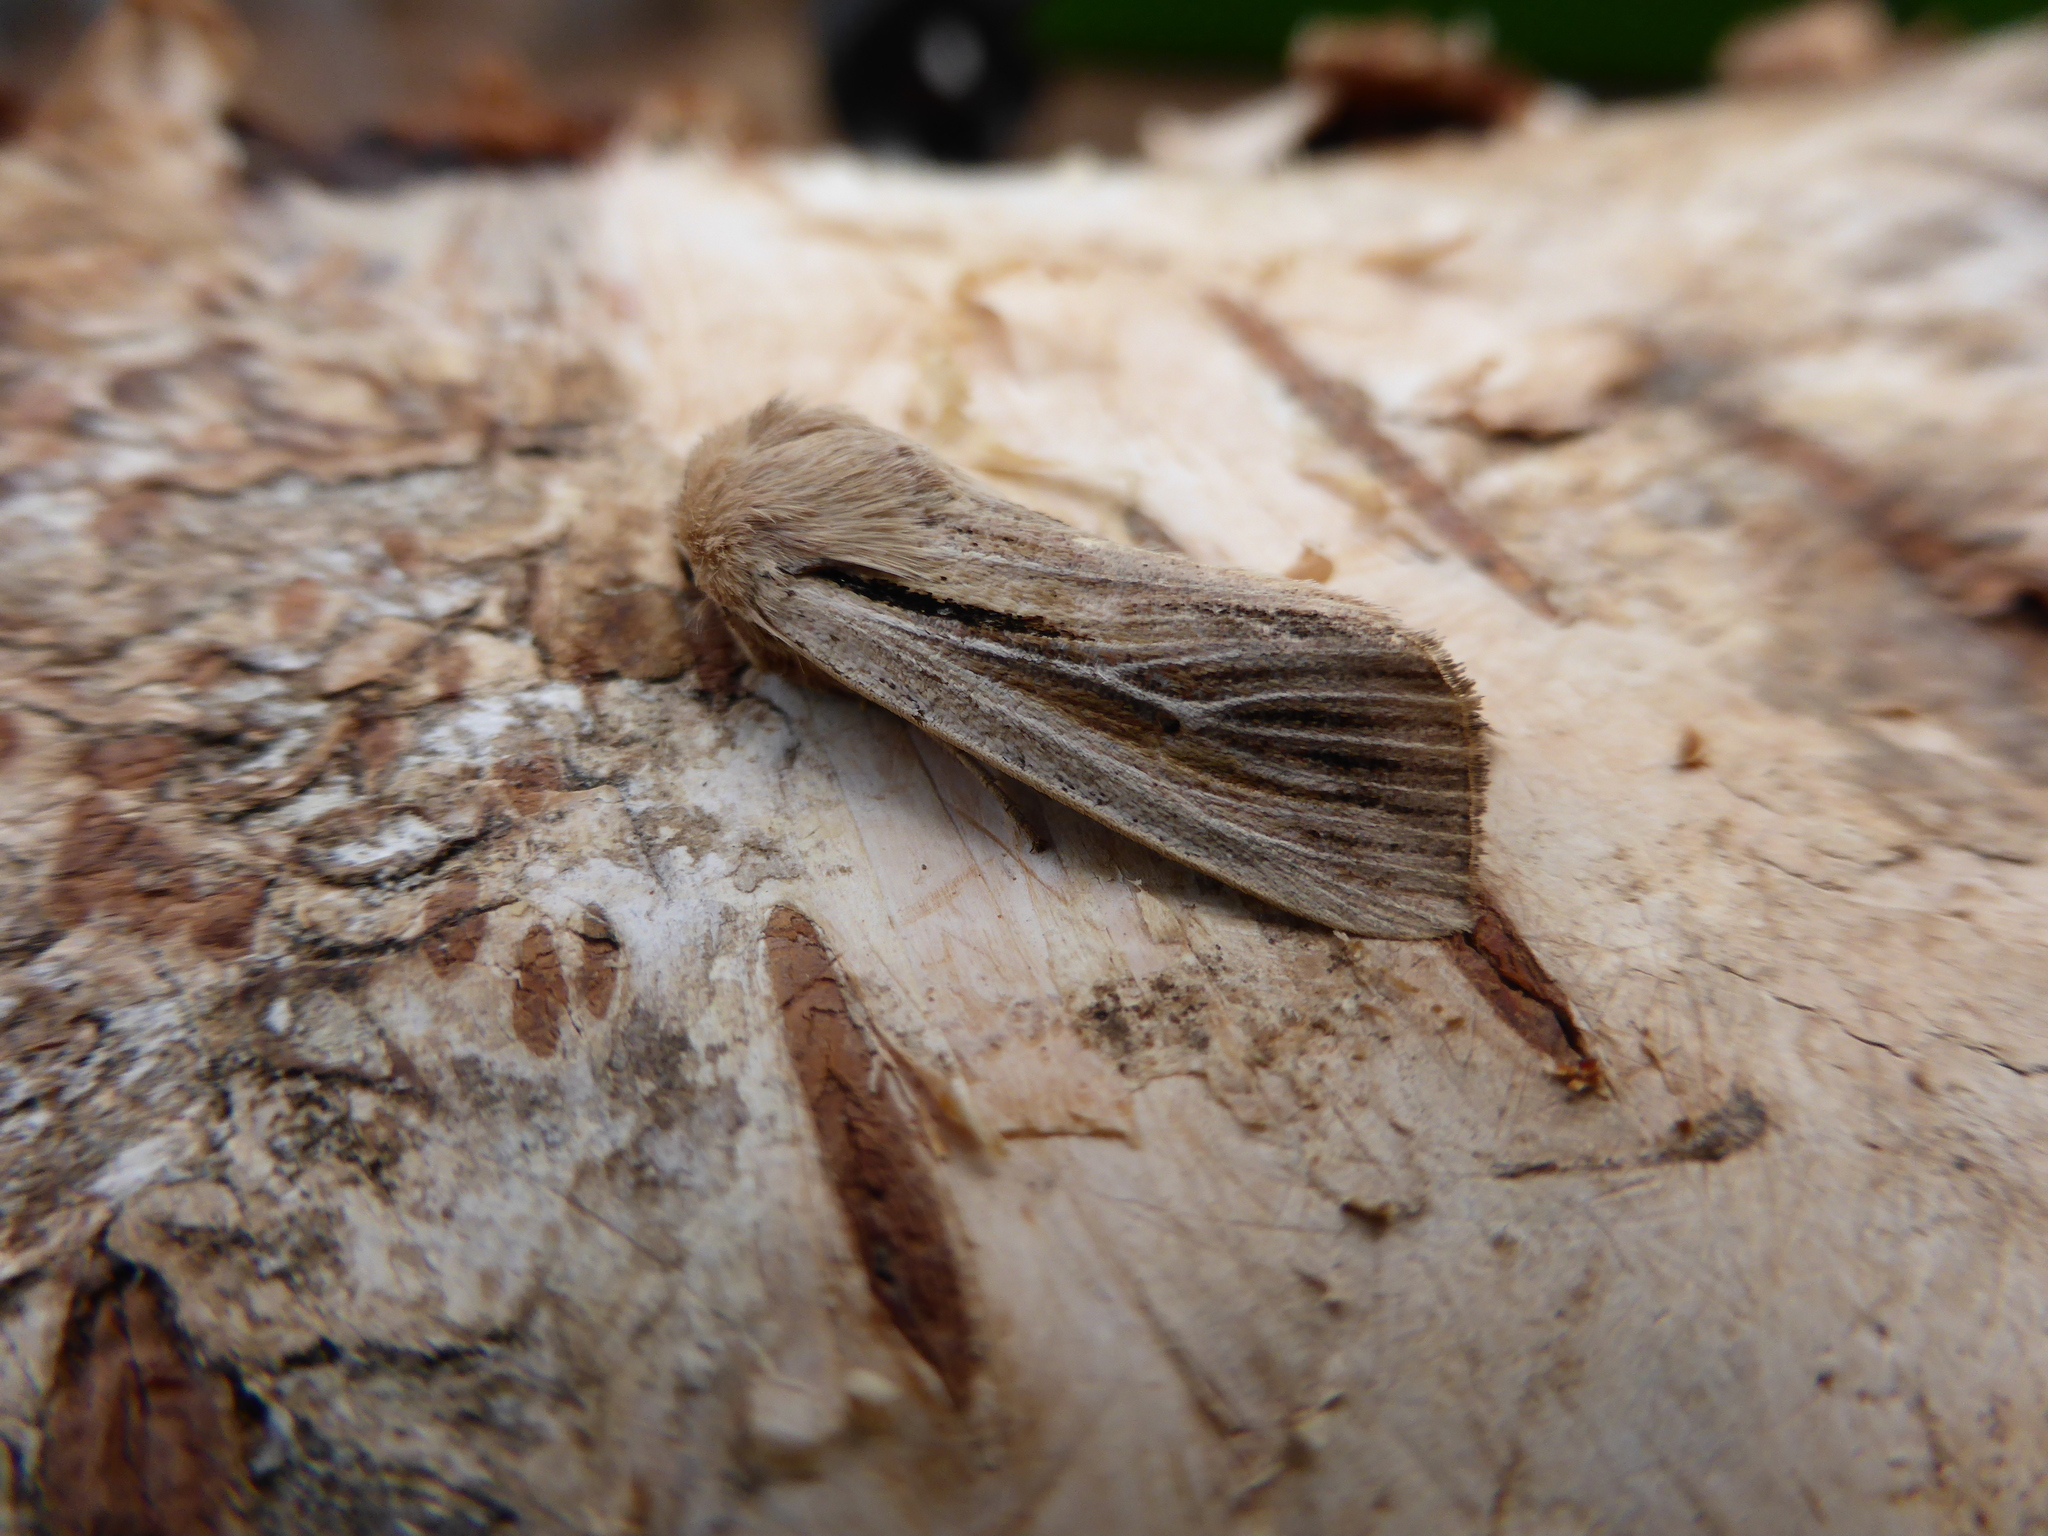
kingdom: Animalia
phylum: Arthropoda
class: Insecta
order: Lepidoptera
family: Noctuidae
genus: Leucania
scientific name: Leucania comma
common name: Shoulder-striped wainscot
